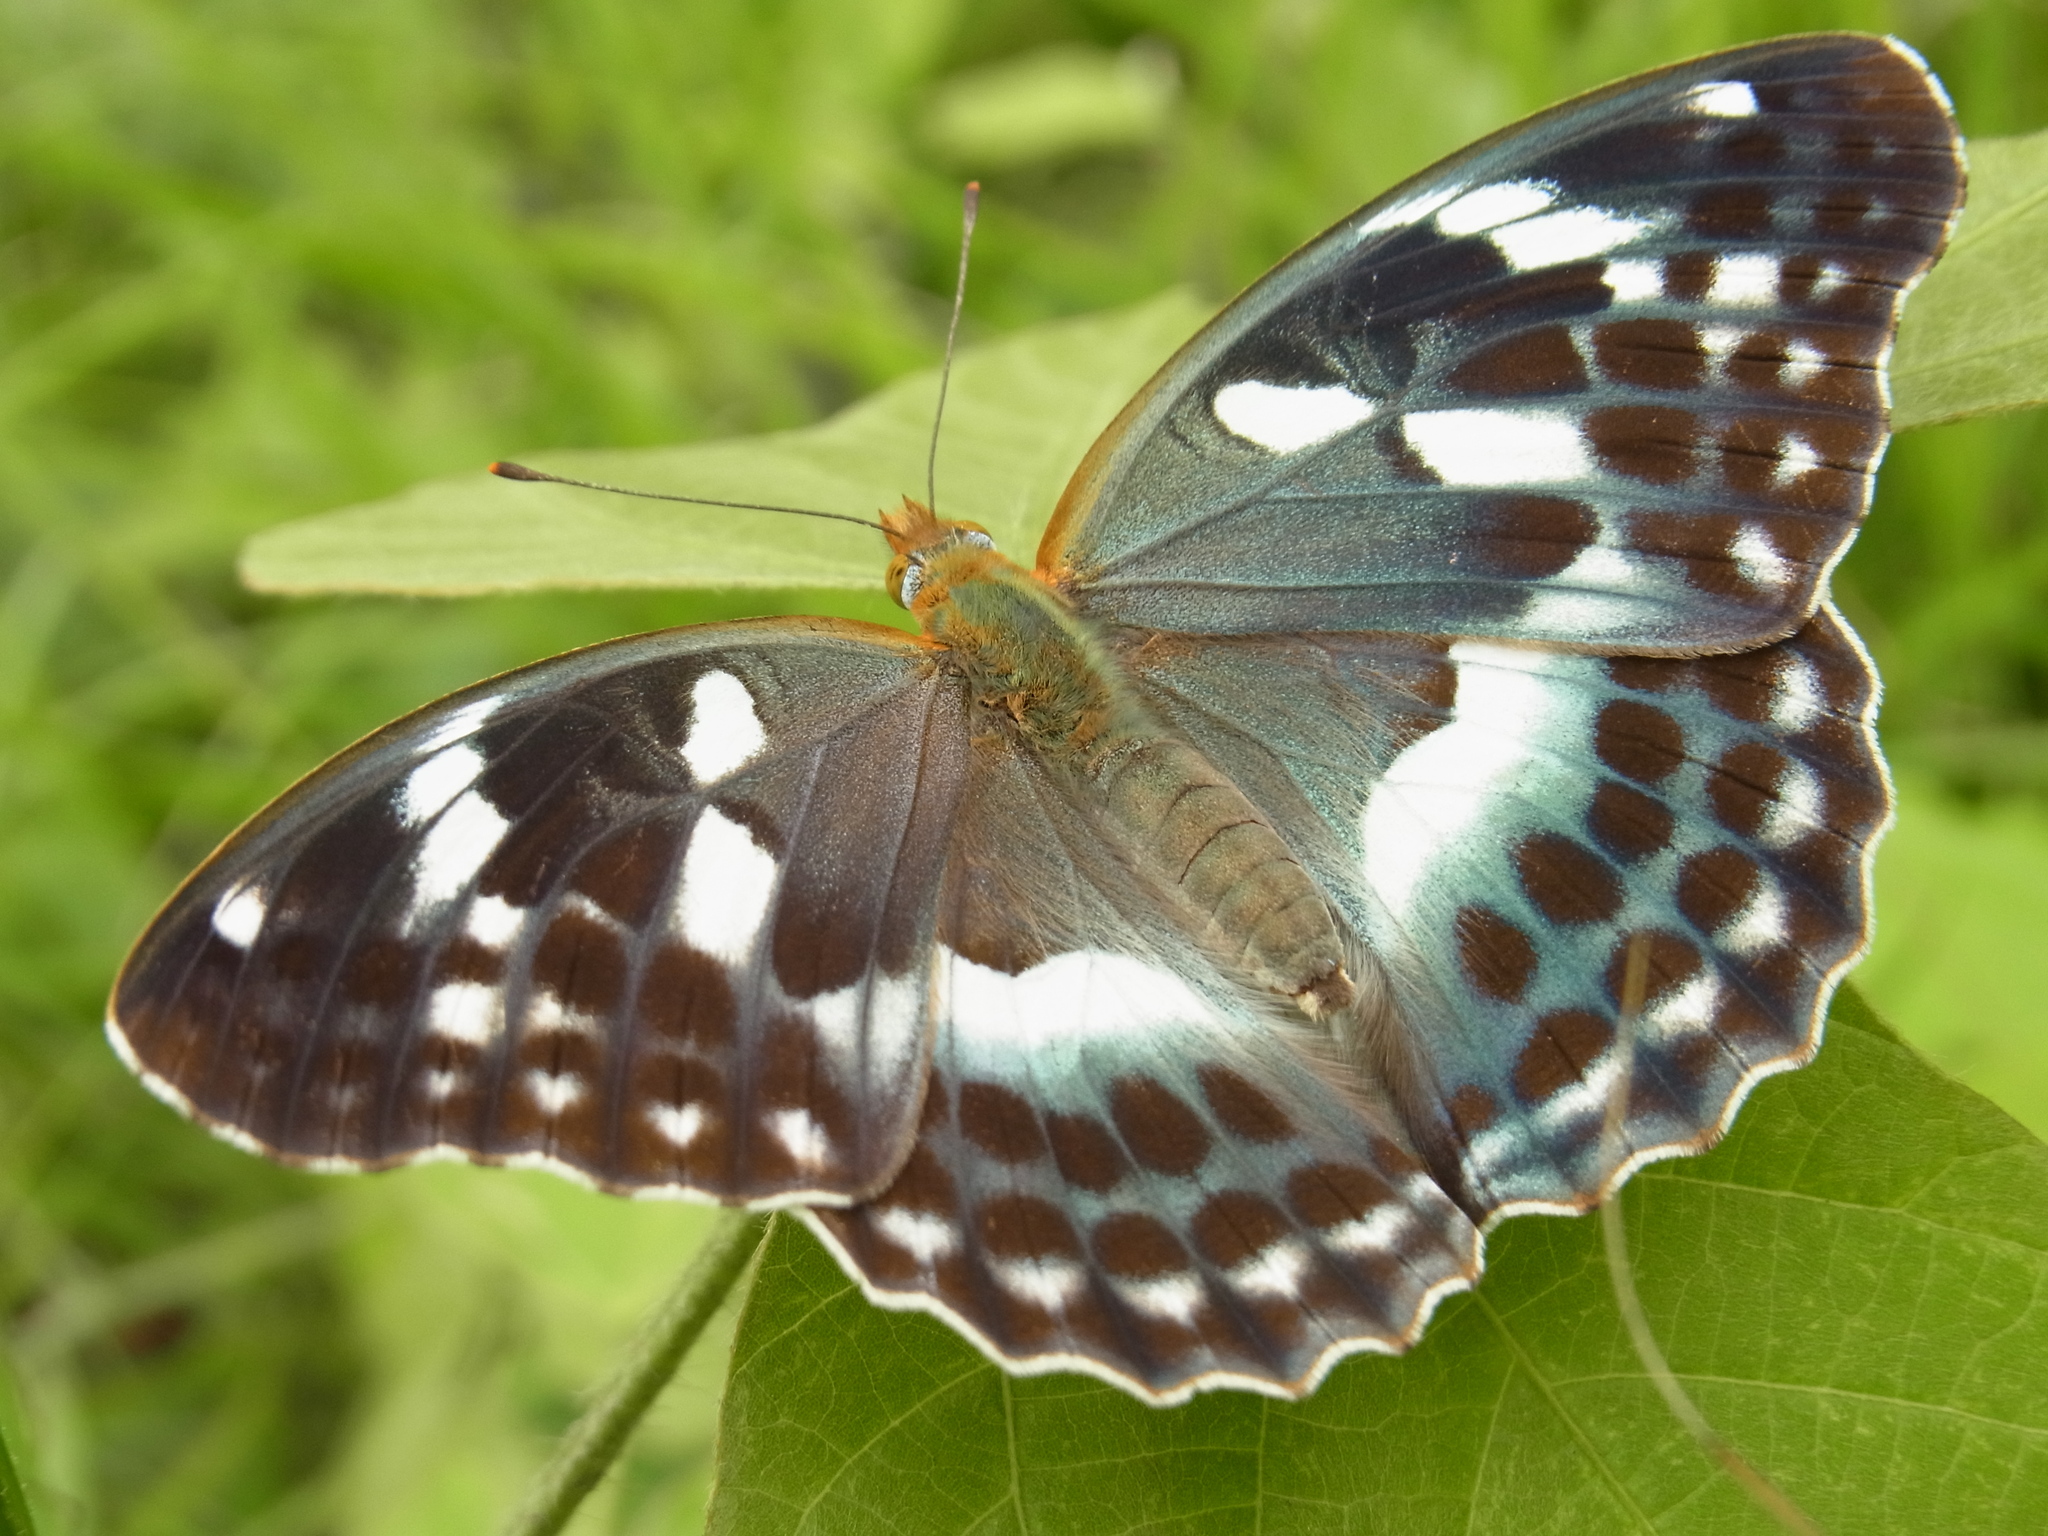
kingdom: Animalia
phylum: Arthropoda
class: Insecta
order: Lepidoptera
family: Nymphalidae
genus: Damora
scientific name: Damora sagana
